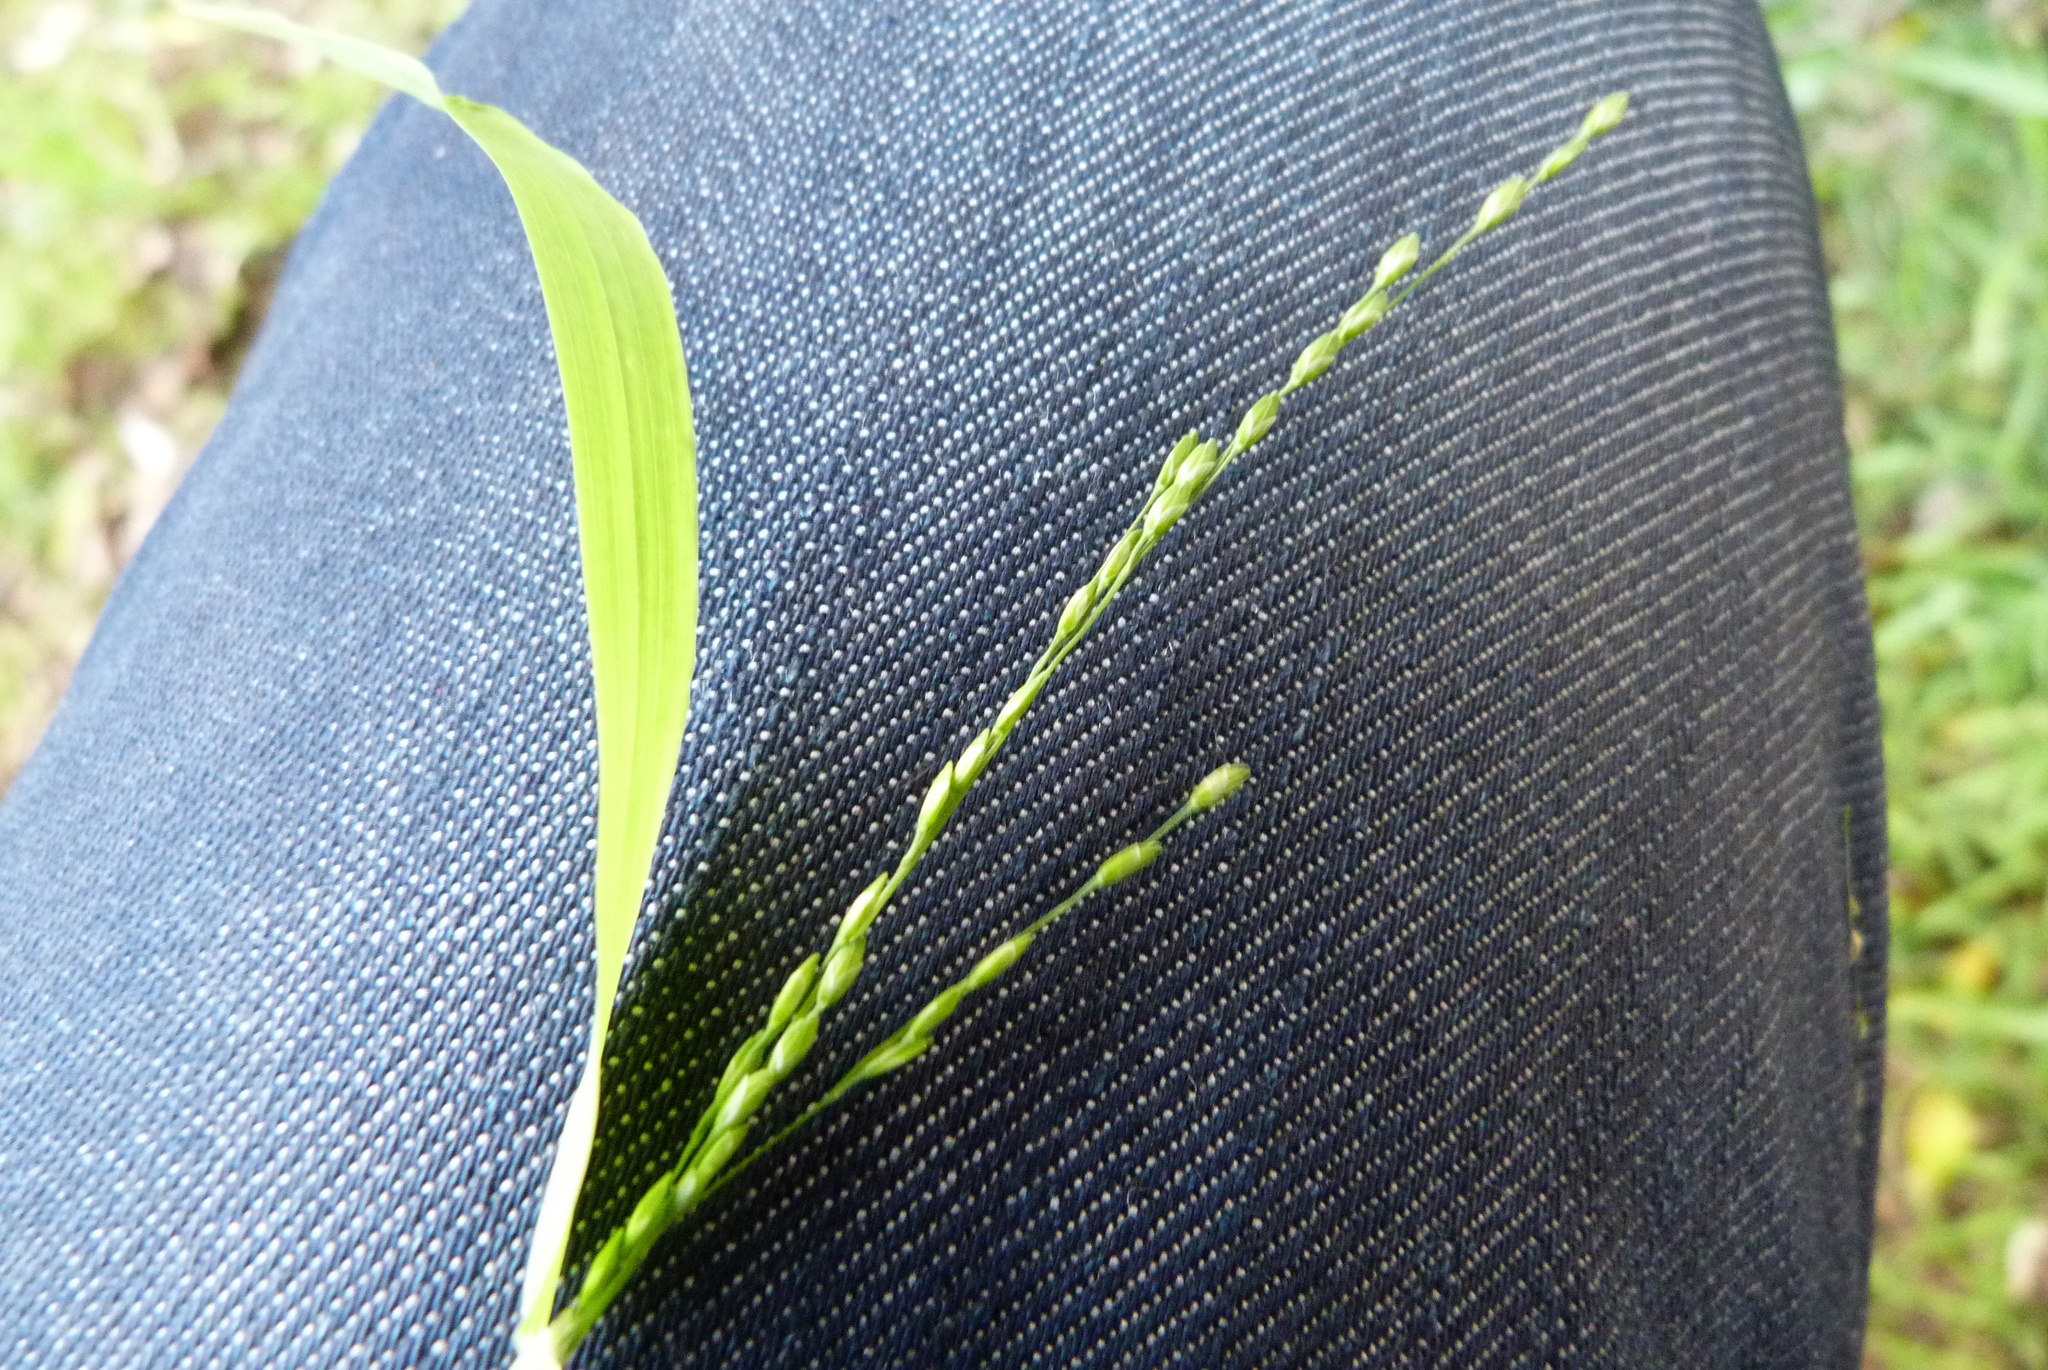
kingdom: Plantae
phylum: Tracheophyta
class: Liliopsida
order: Poales
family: Poaceae
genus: Ehrharta
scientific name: Ehrharta erecta
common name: Panic veldtgrass
